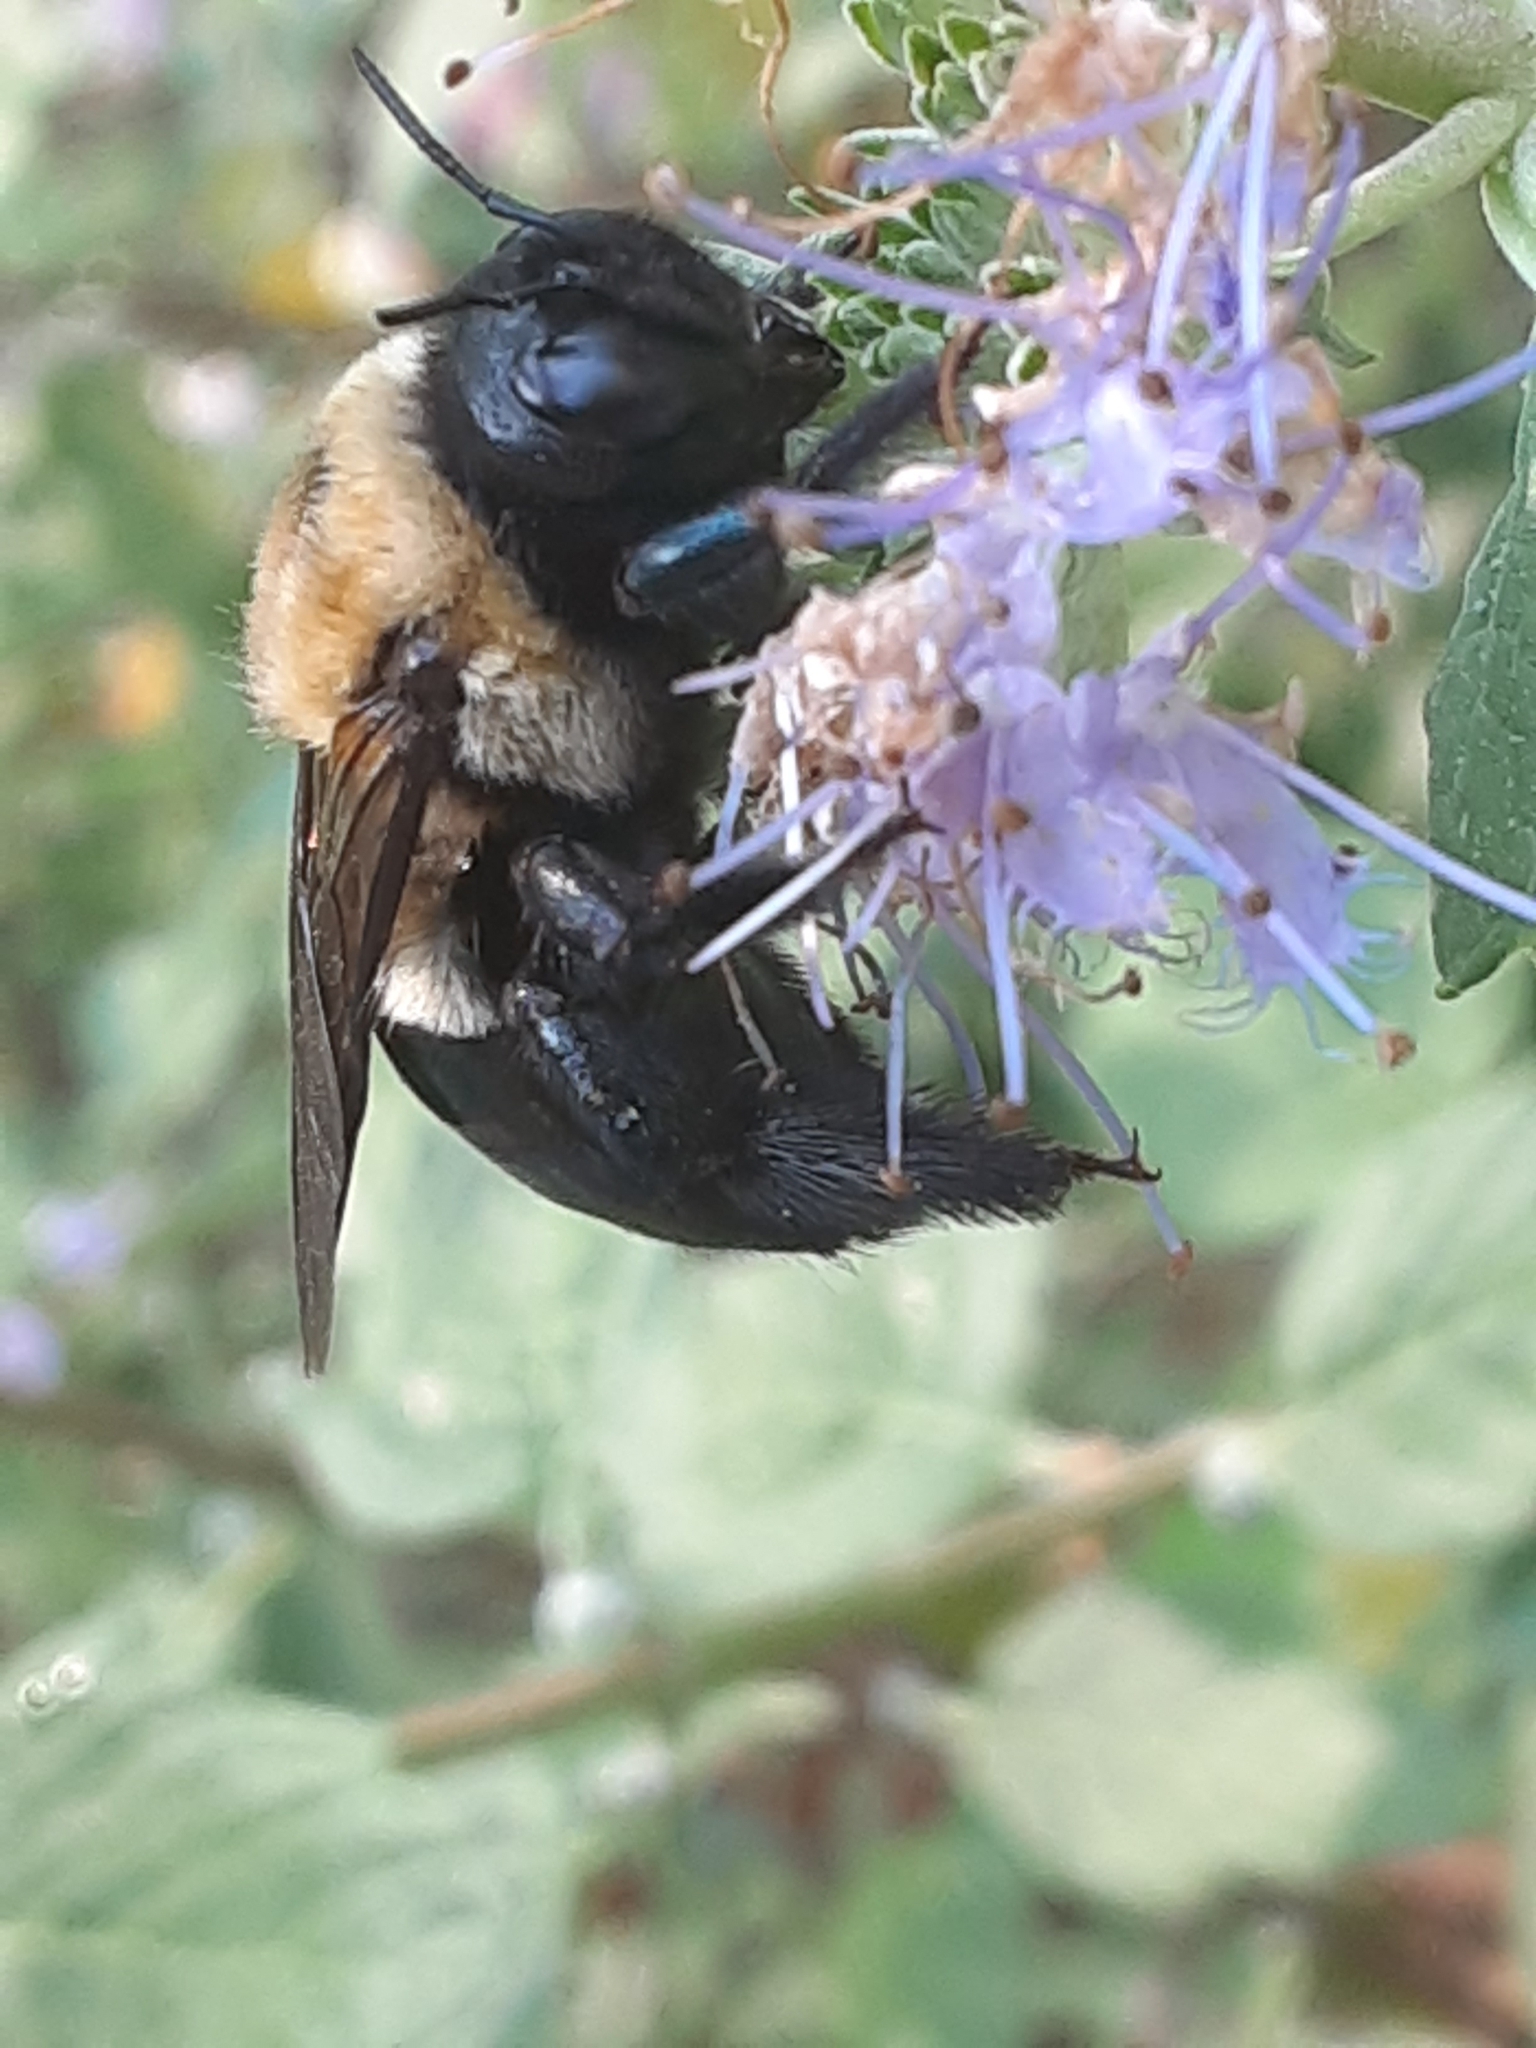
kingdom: Animalia
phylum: Arthropoda
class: Insecta
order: Hymenoptera
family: Apidae
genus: Xylocopa
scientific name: Xylocopa virginica
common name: Carpenter bee
